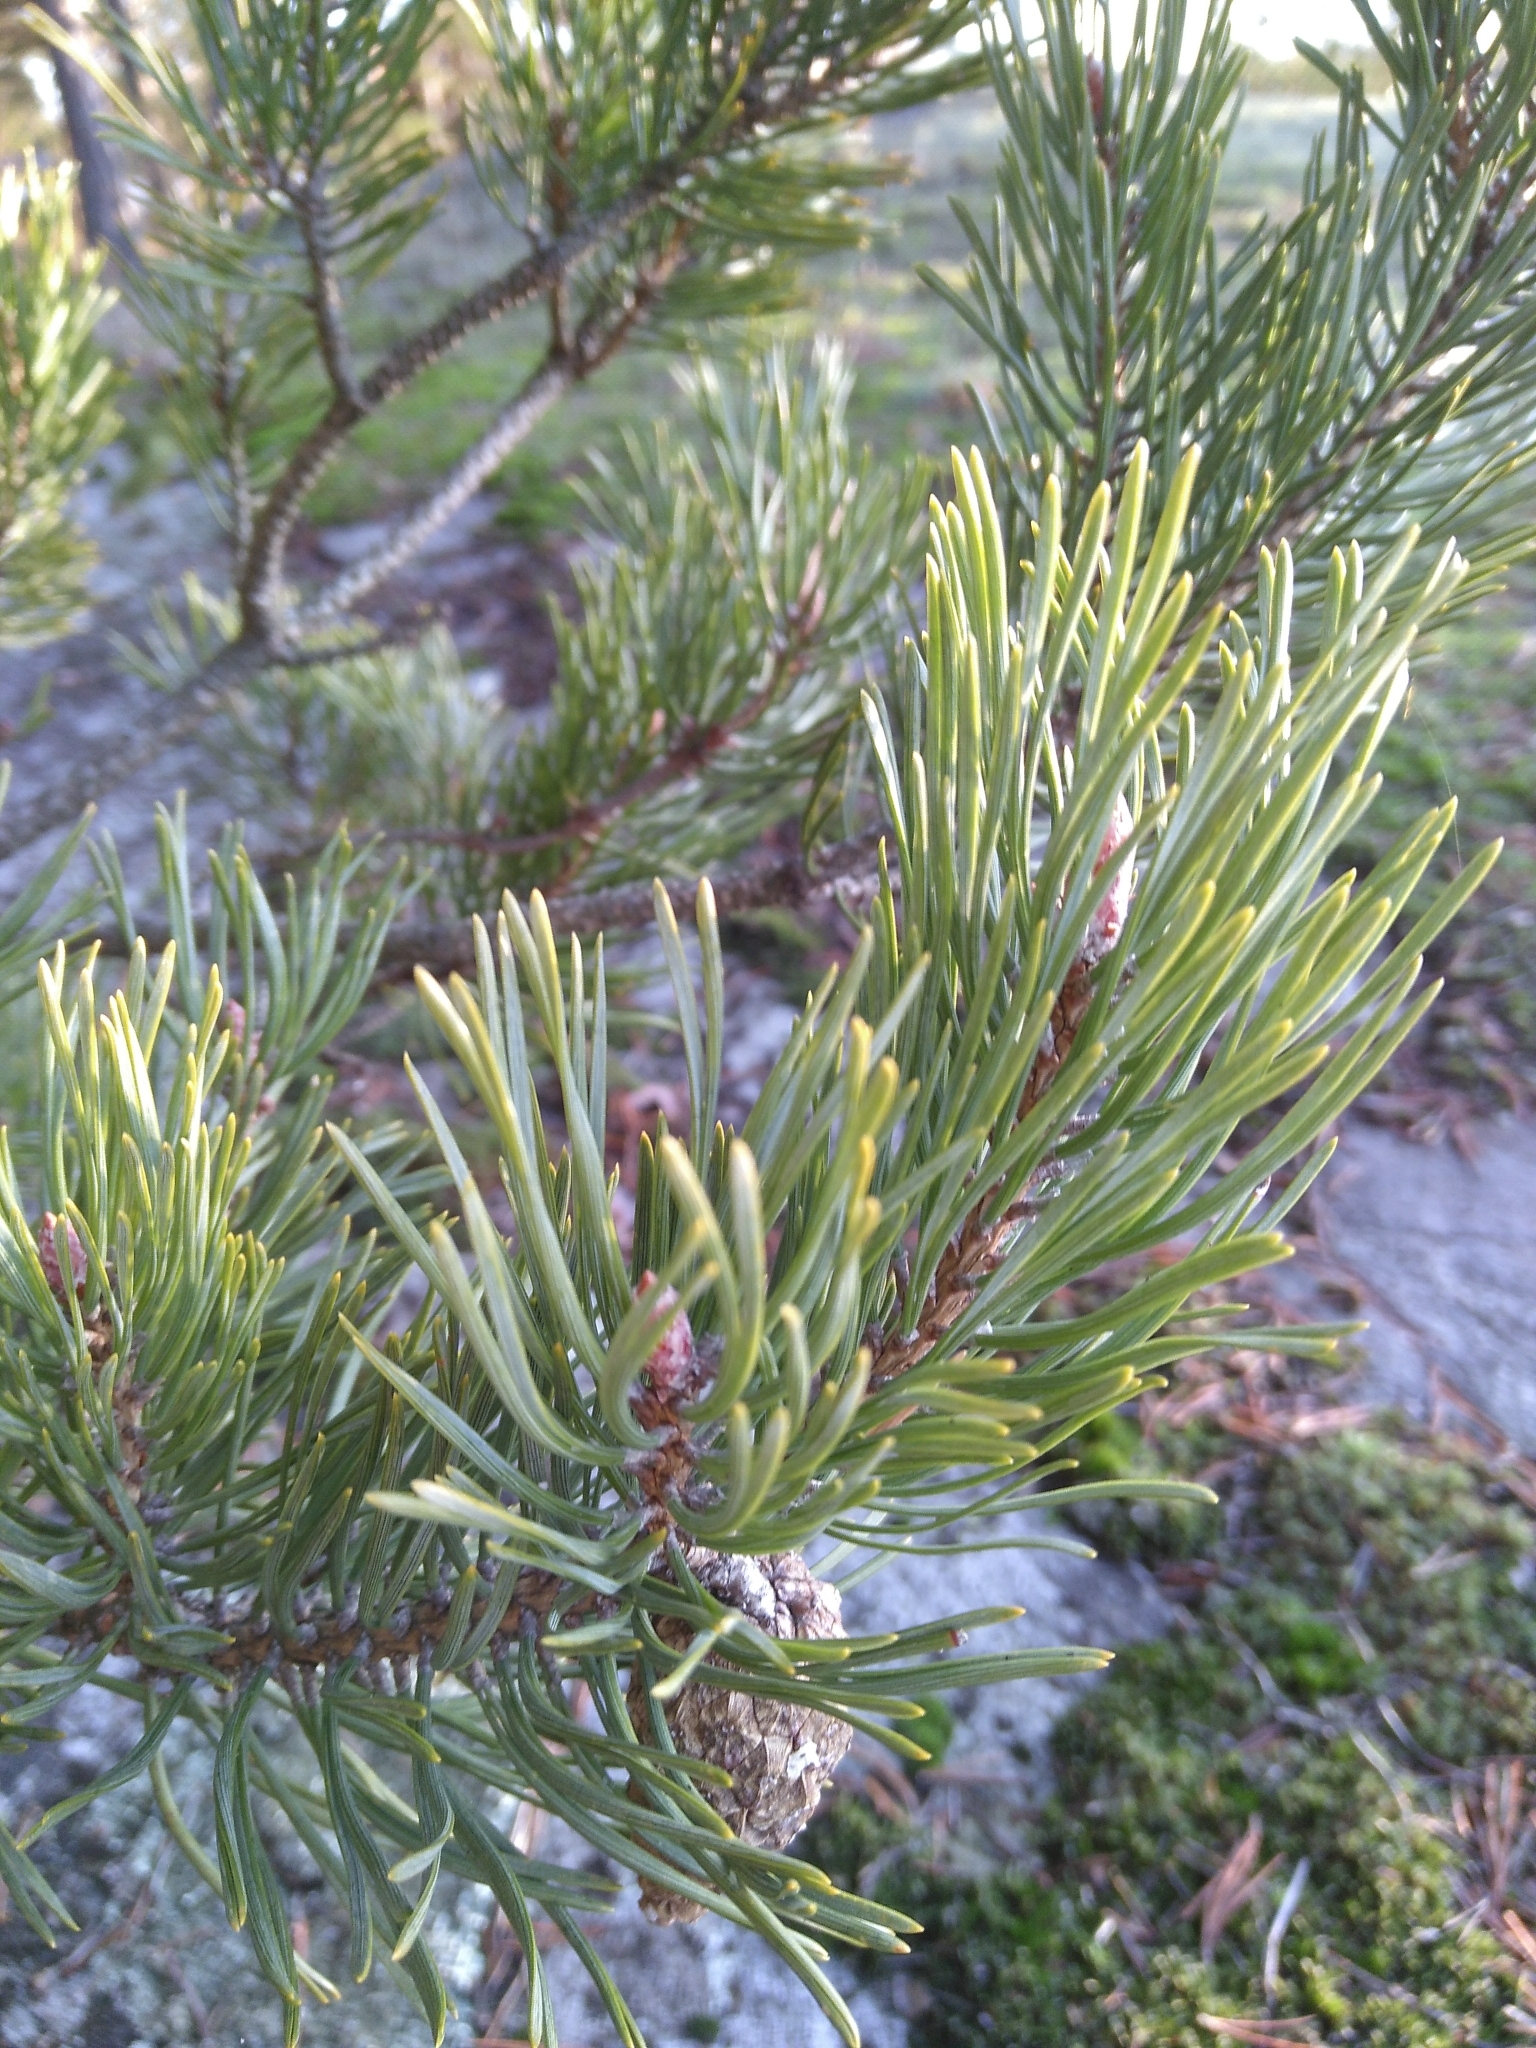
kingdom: Plantae
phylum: Tracheophyta
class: Pinopsida
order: Pinales
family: Pinaceae
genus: Pinus
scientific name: Pinus sylvestris
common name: Scots pine
